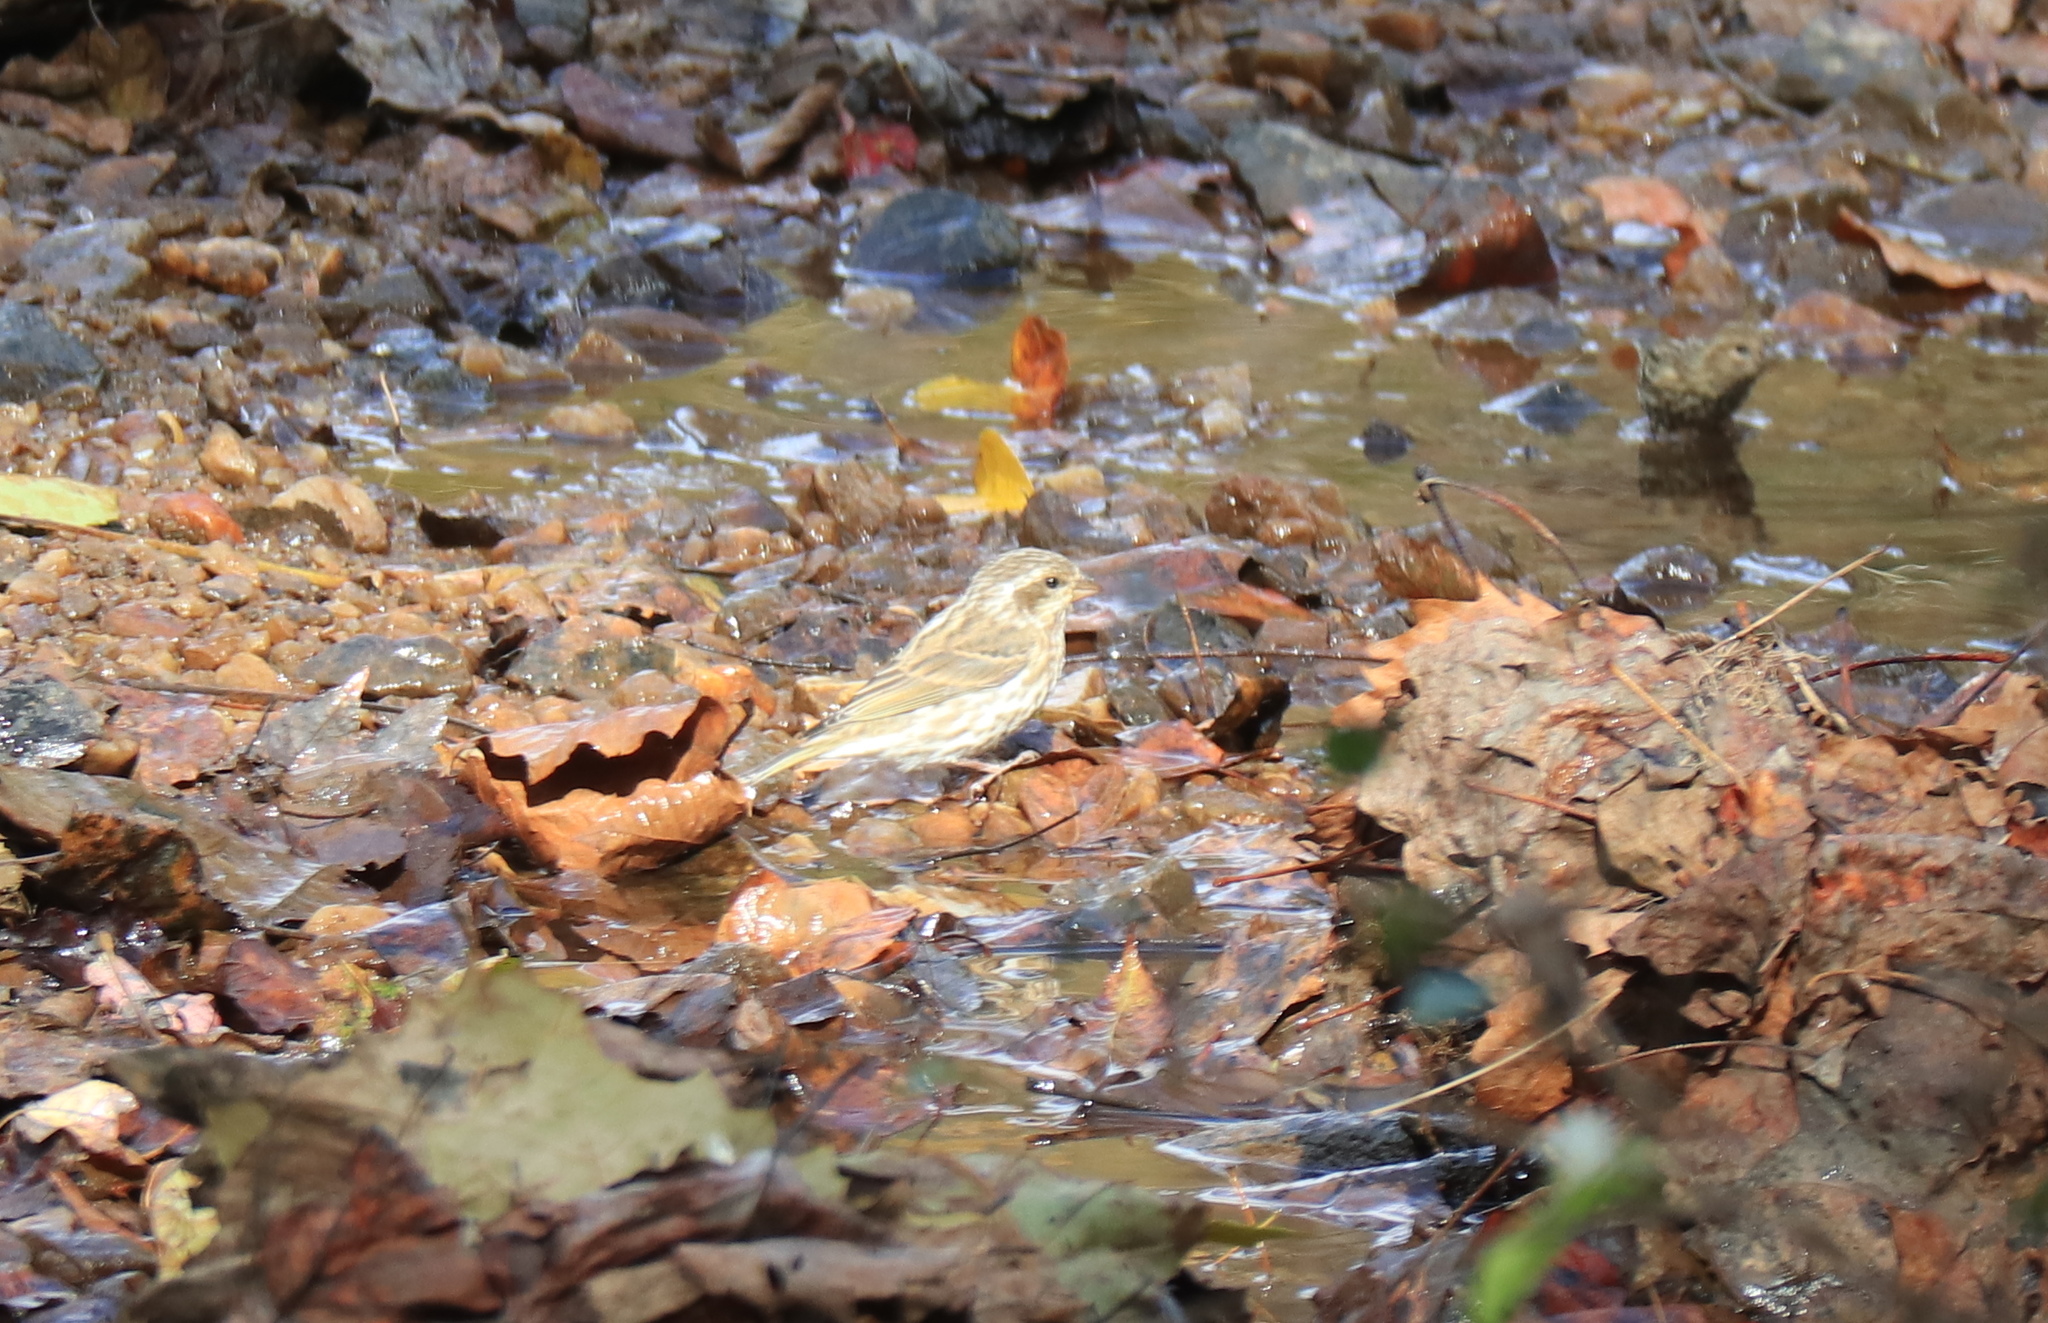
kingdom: Animalia
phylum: Chordata
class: Aves
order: Passeriformes
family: Fringillidae
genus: Haemorhous
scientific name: Haemorhous purpureus
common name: Purple finch
